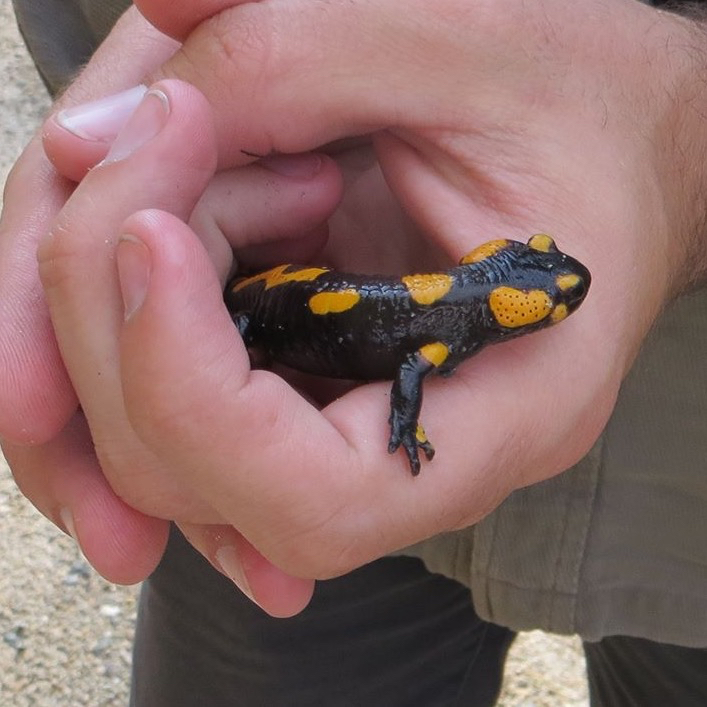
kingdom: Animalia
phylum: Chordata
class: Amphibia
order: Caudata
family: Salamandridae
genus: Salamandra
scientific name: Salamandra salamandra
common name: Fire salamander
